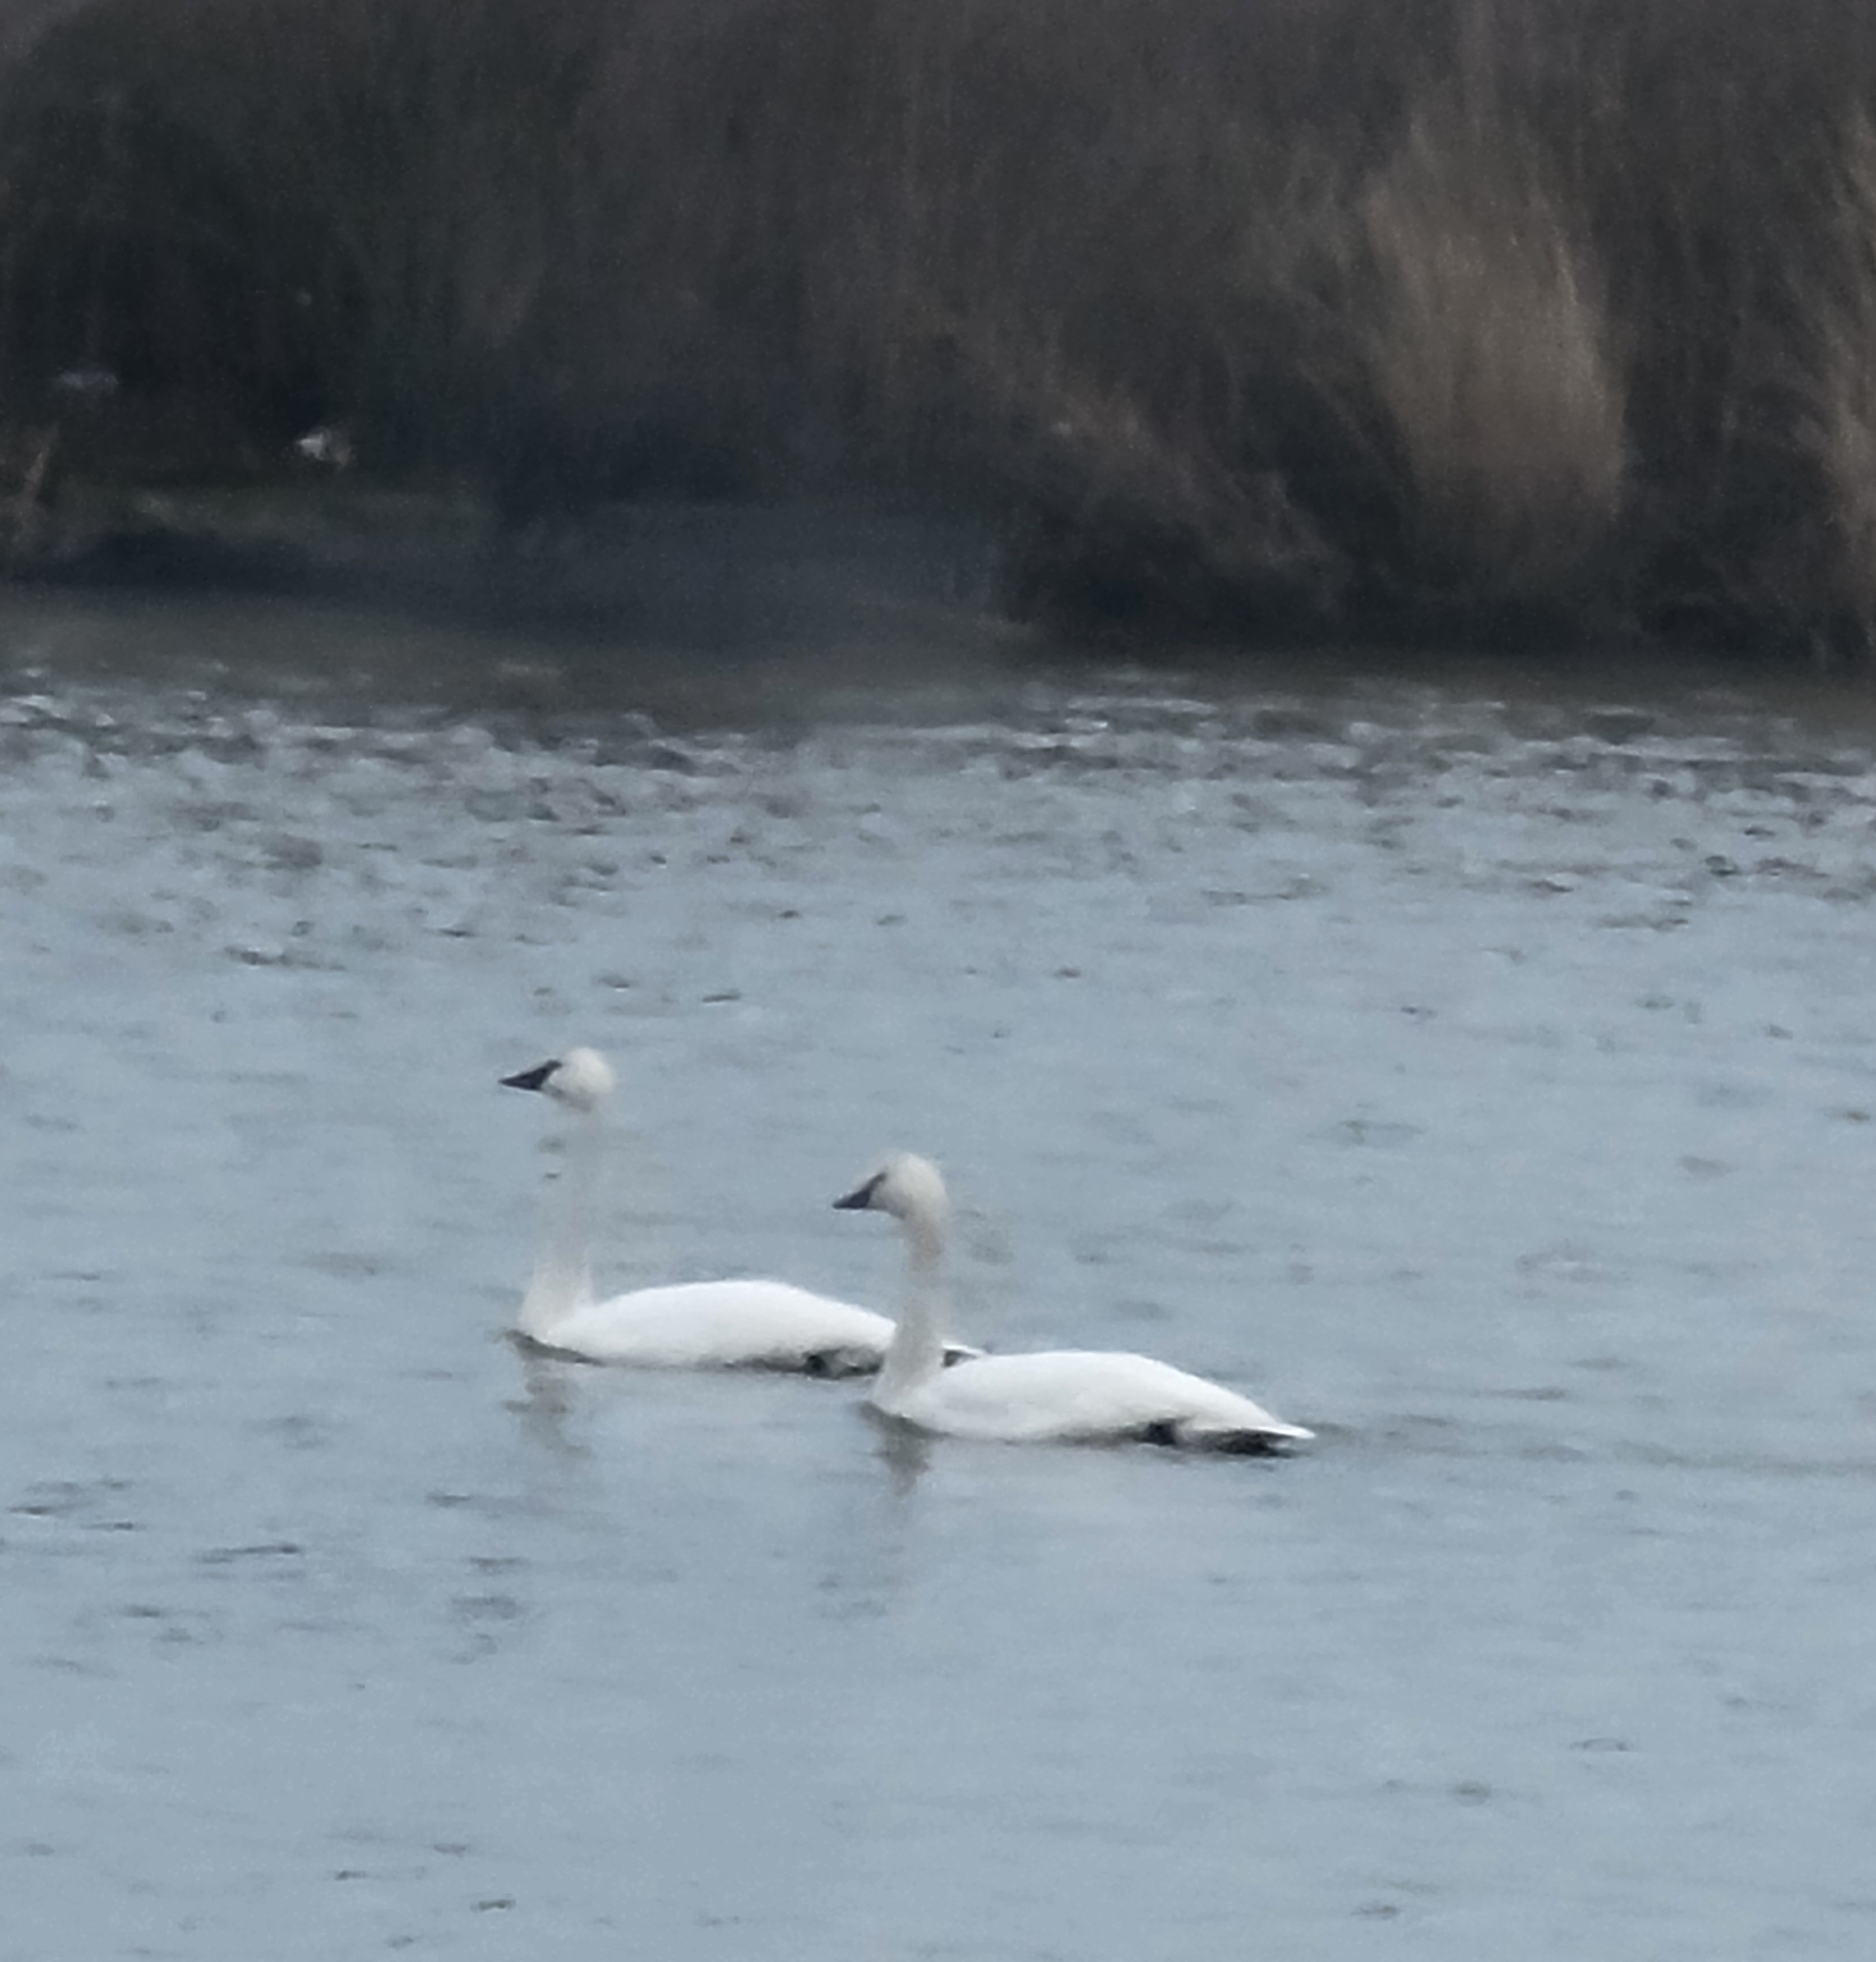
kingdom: Animalia
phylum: Chordata
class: Aves
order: Anseriformes
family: Anatidae
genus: Cygnus
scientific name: Cygnus columbianus
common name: Tundra swan
